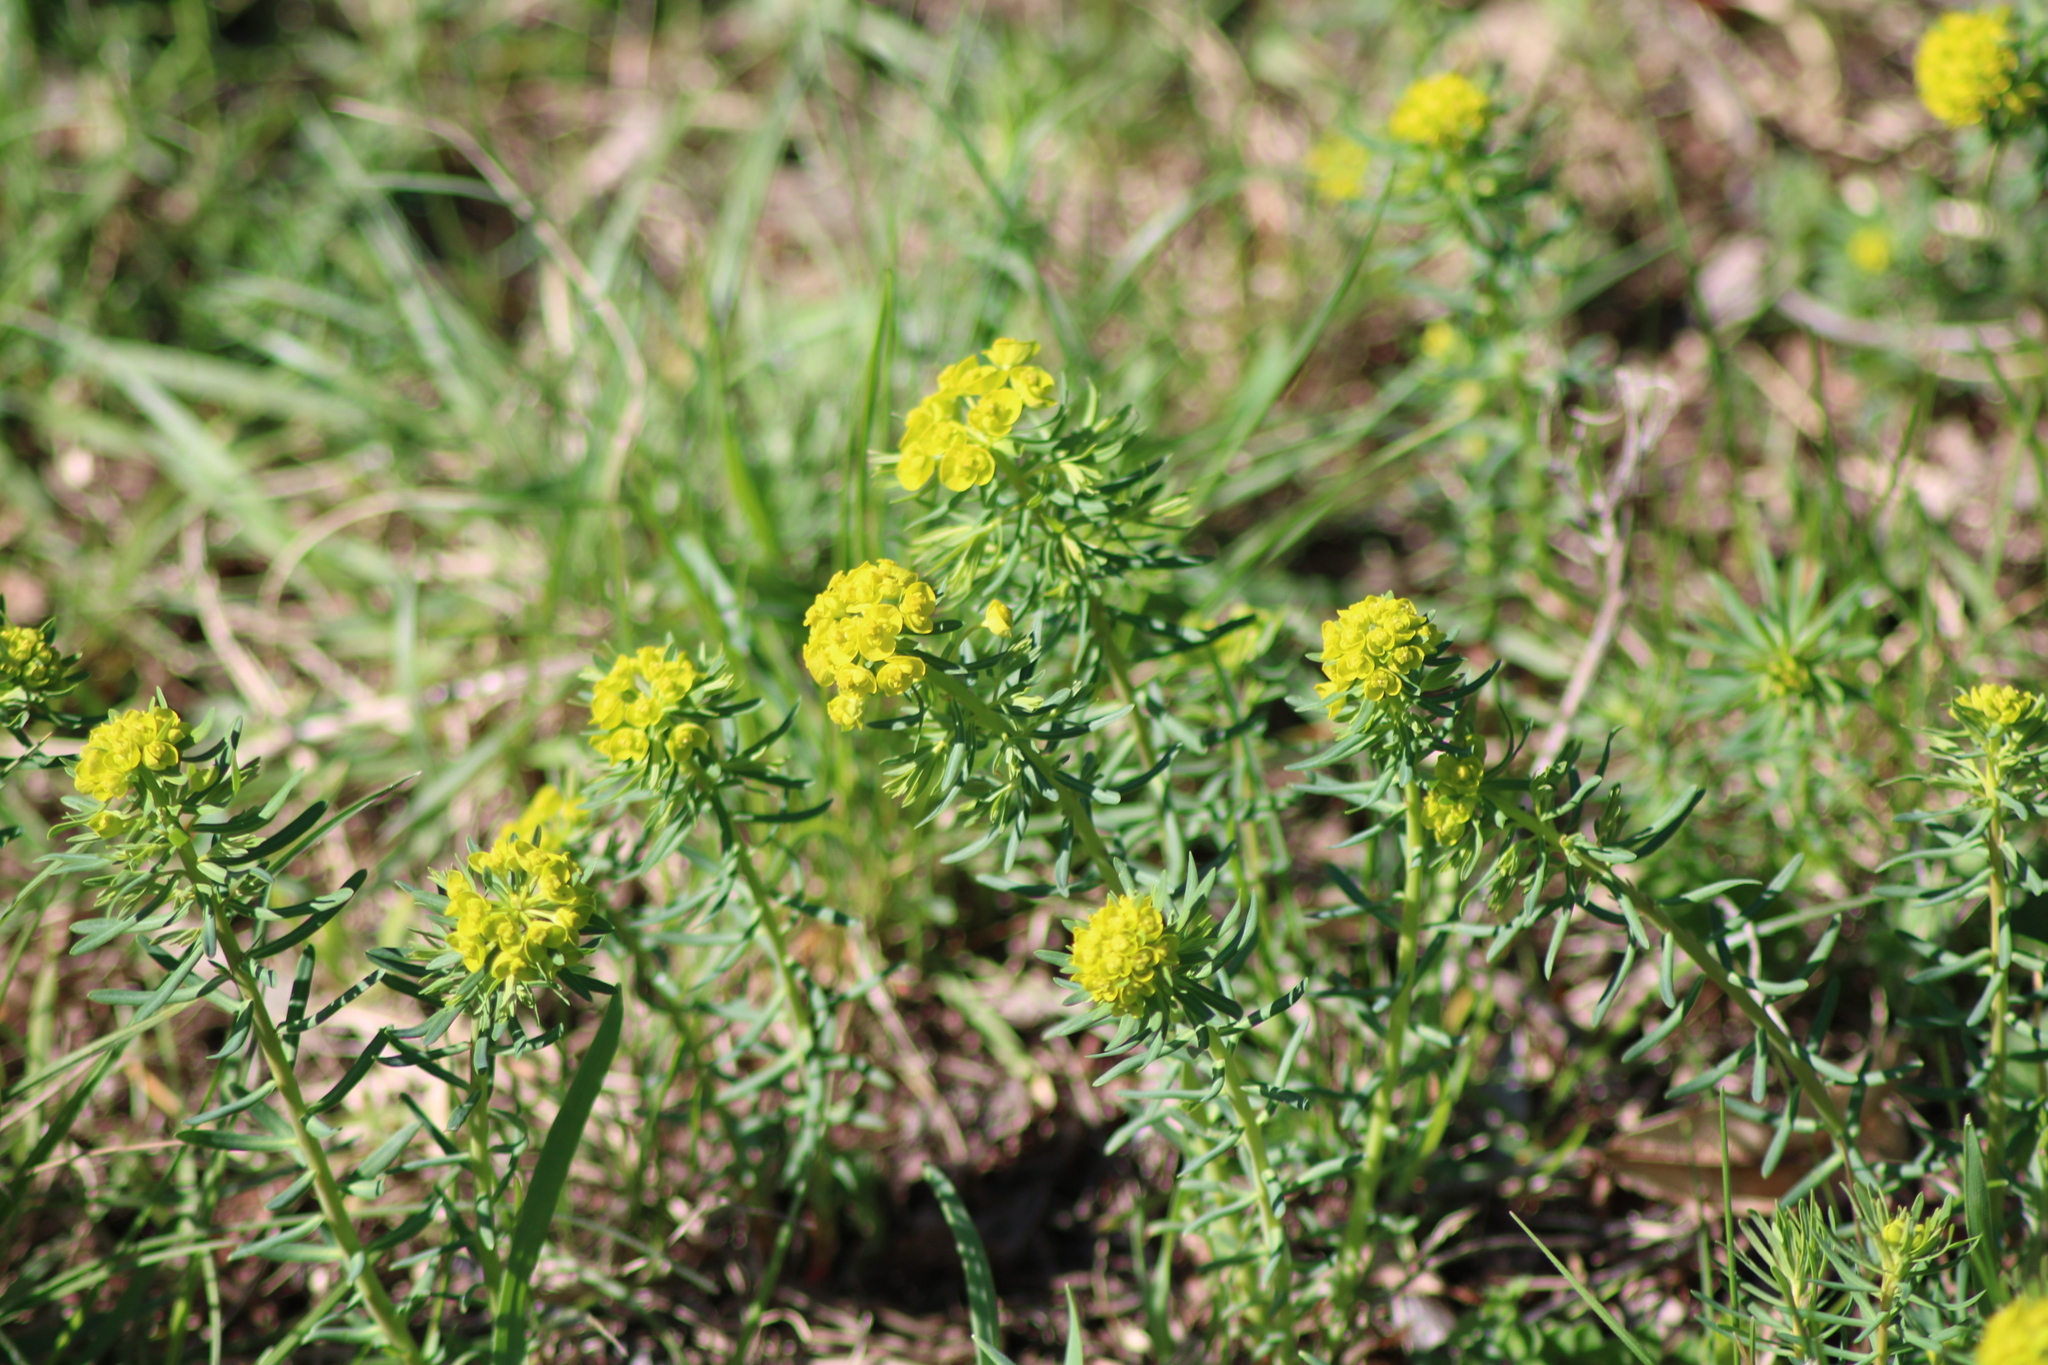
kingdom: Plantae
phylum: Tracheophyta
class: Magnoliopsida
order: Malpighiales
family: Euphorbiaceae
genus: Euphorbia
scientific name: Euphorbia cyparissias
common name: Cypress spurge
